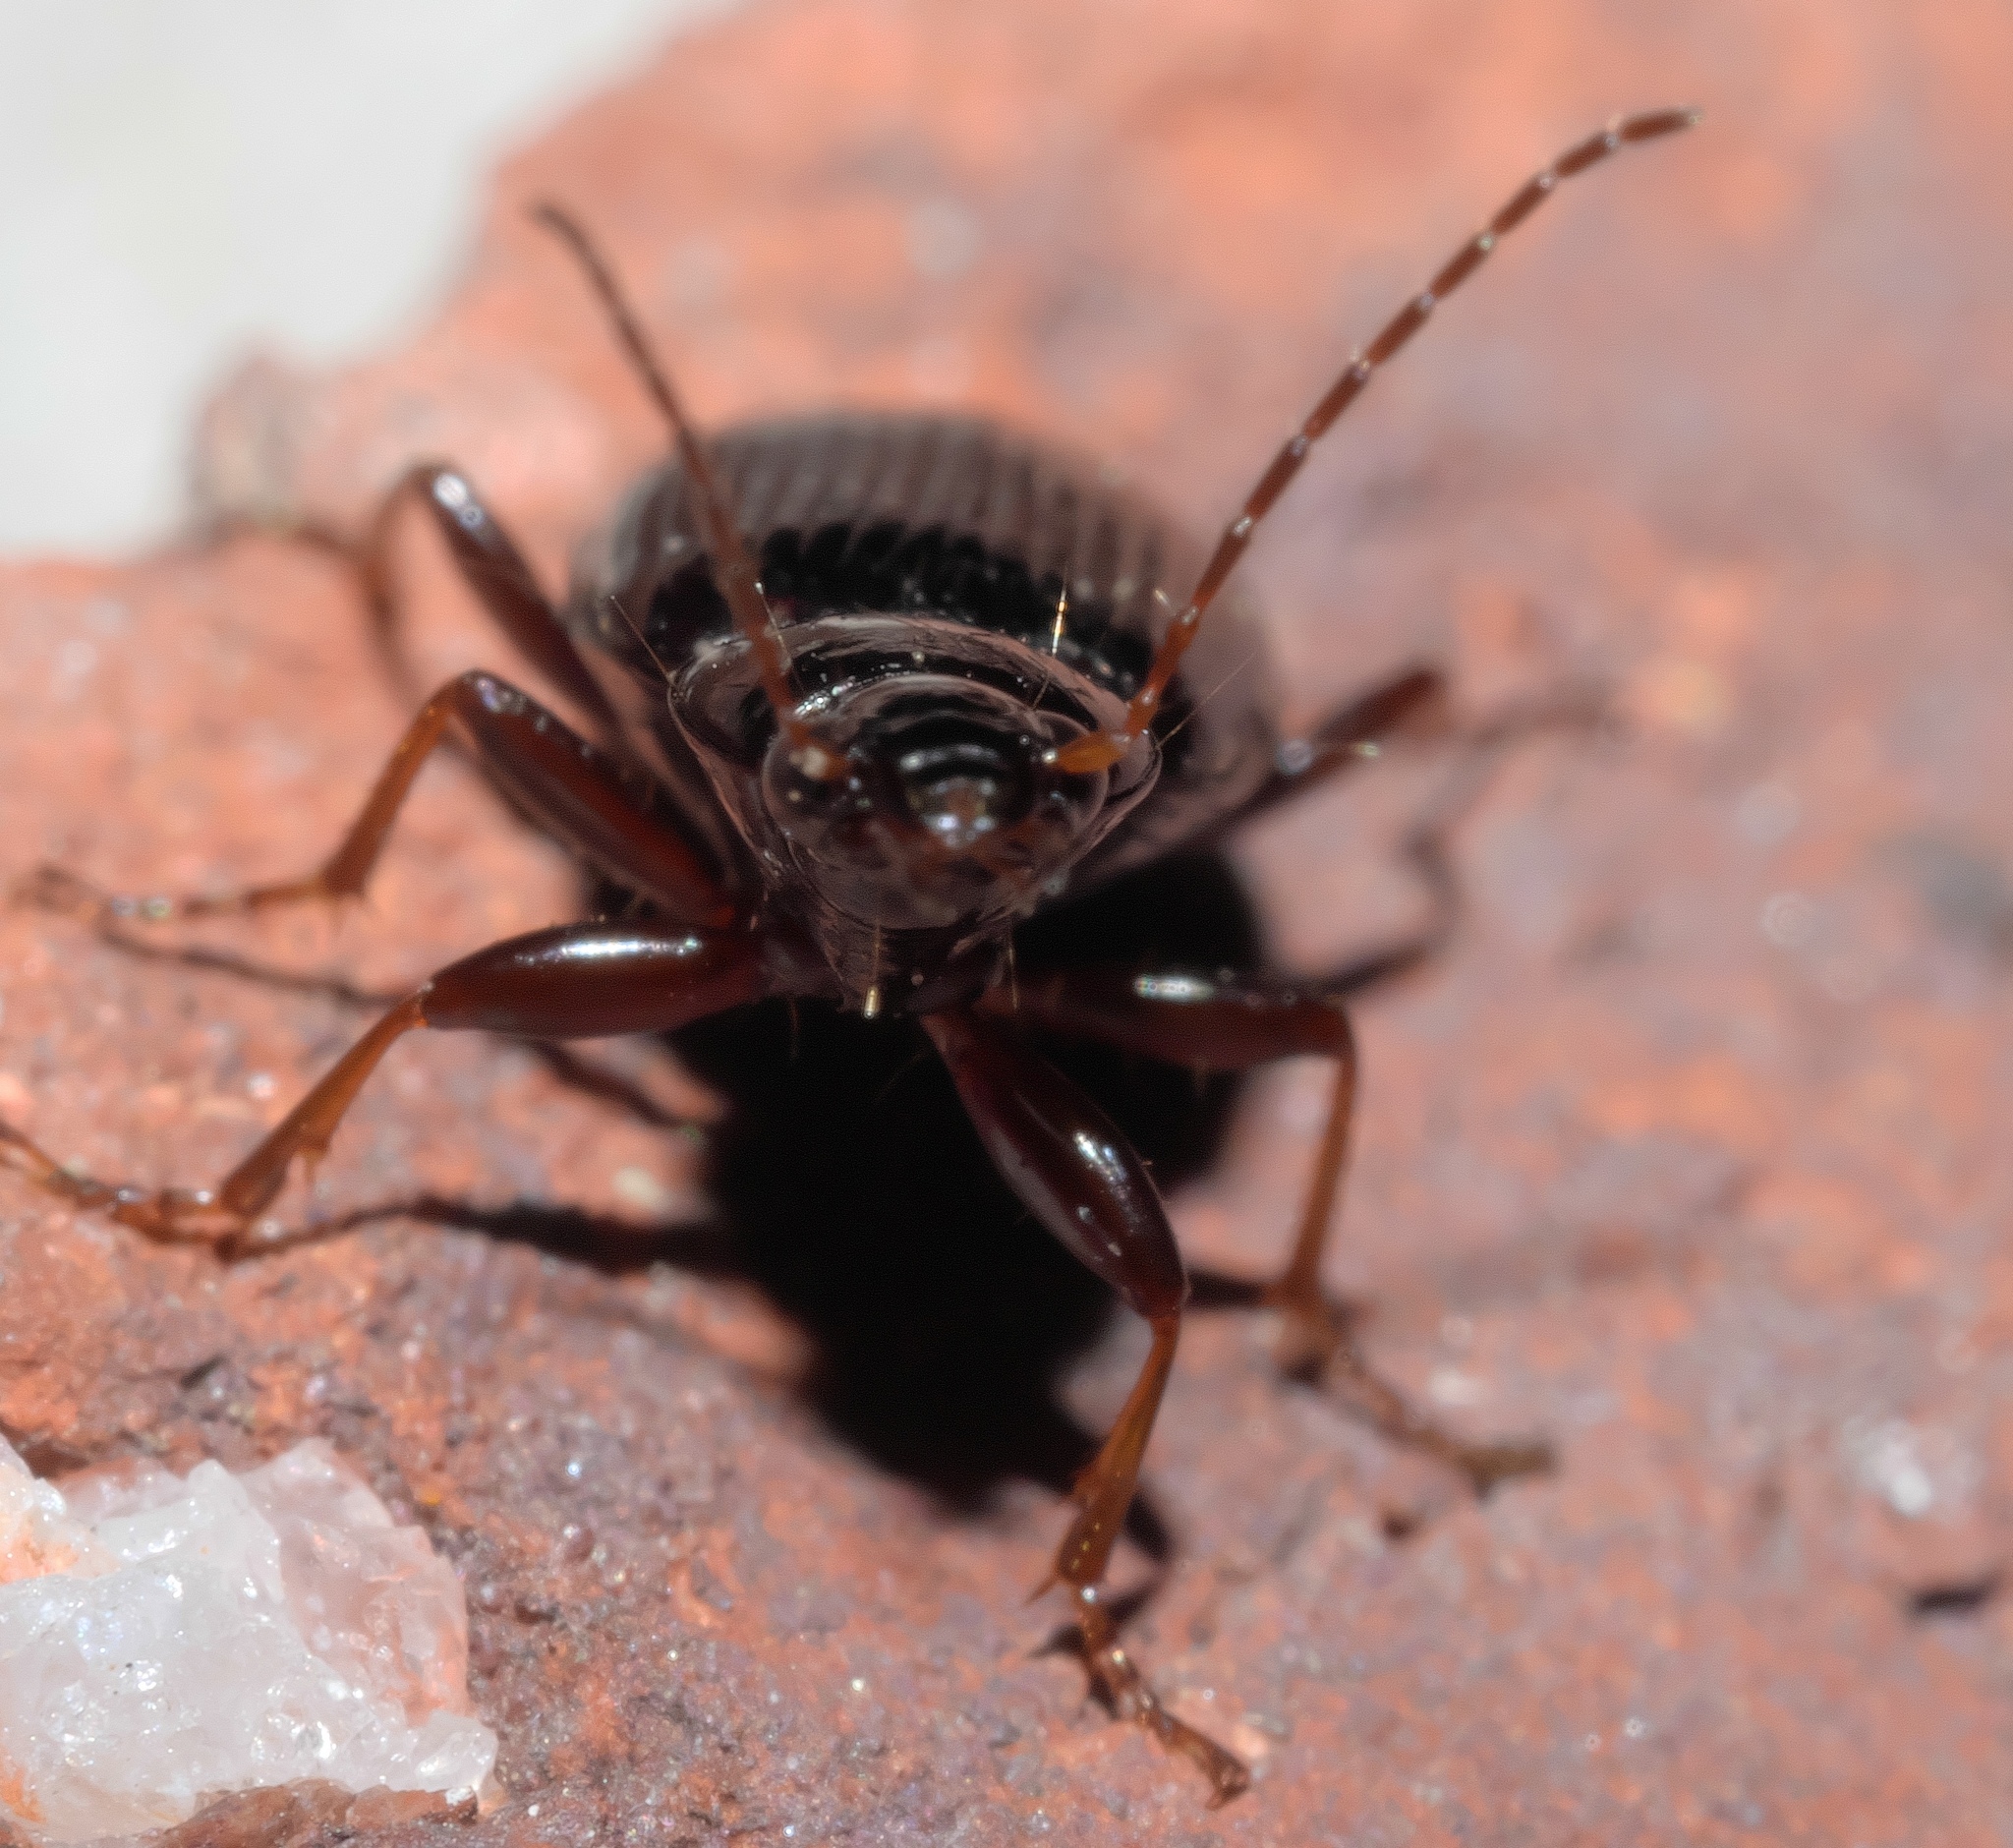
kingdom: Animalia
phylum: Arthropoda
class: Insecta
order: Coleoptera
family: Carabidae
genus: Agonum
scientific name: Agonum punctiforme
